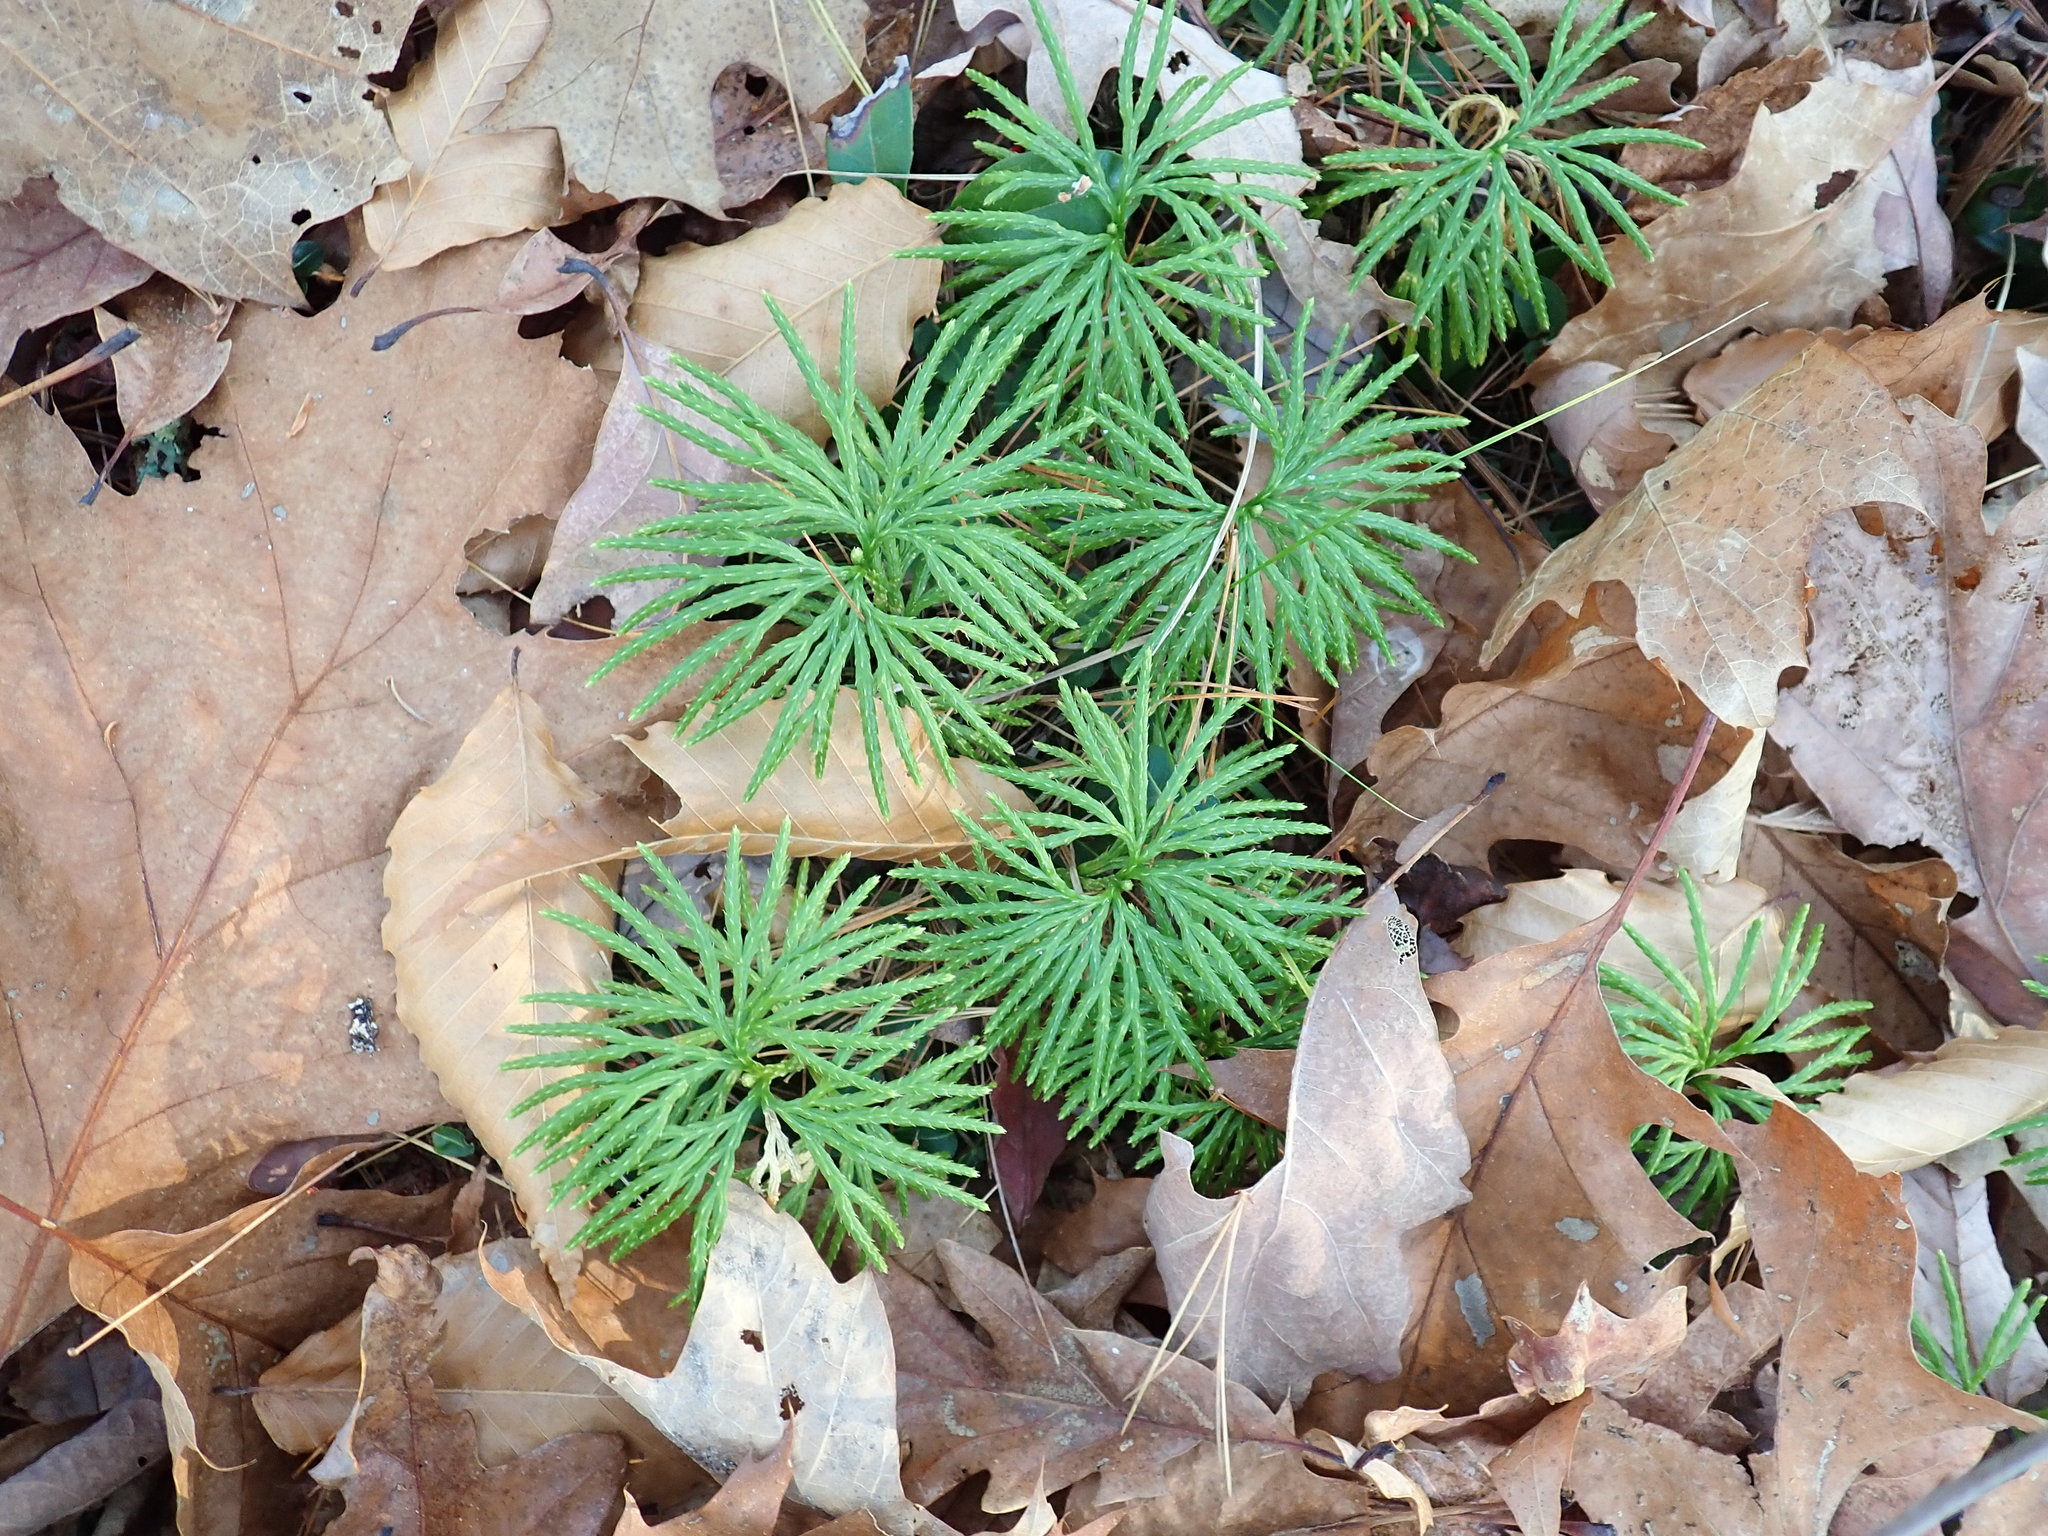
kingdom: Plantae
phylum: Tracheophyta
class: Lycopodiopsida
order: Lycopodiales
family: Lycopodiaceae
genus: Diphasiastrum
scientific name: Diphasiastrum digitatum
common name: Southern running-pine
